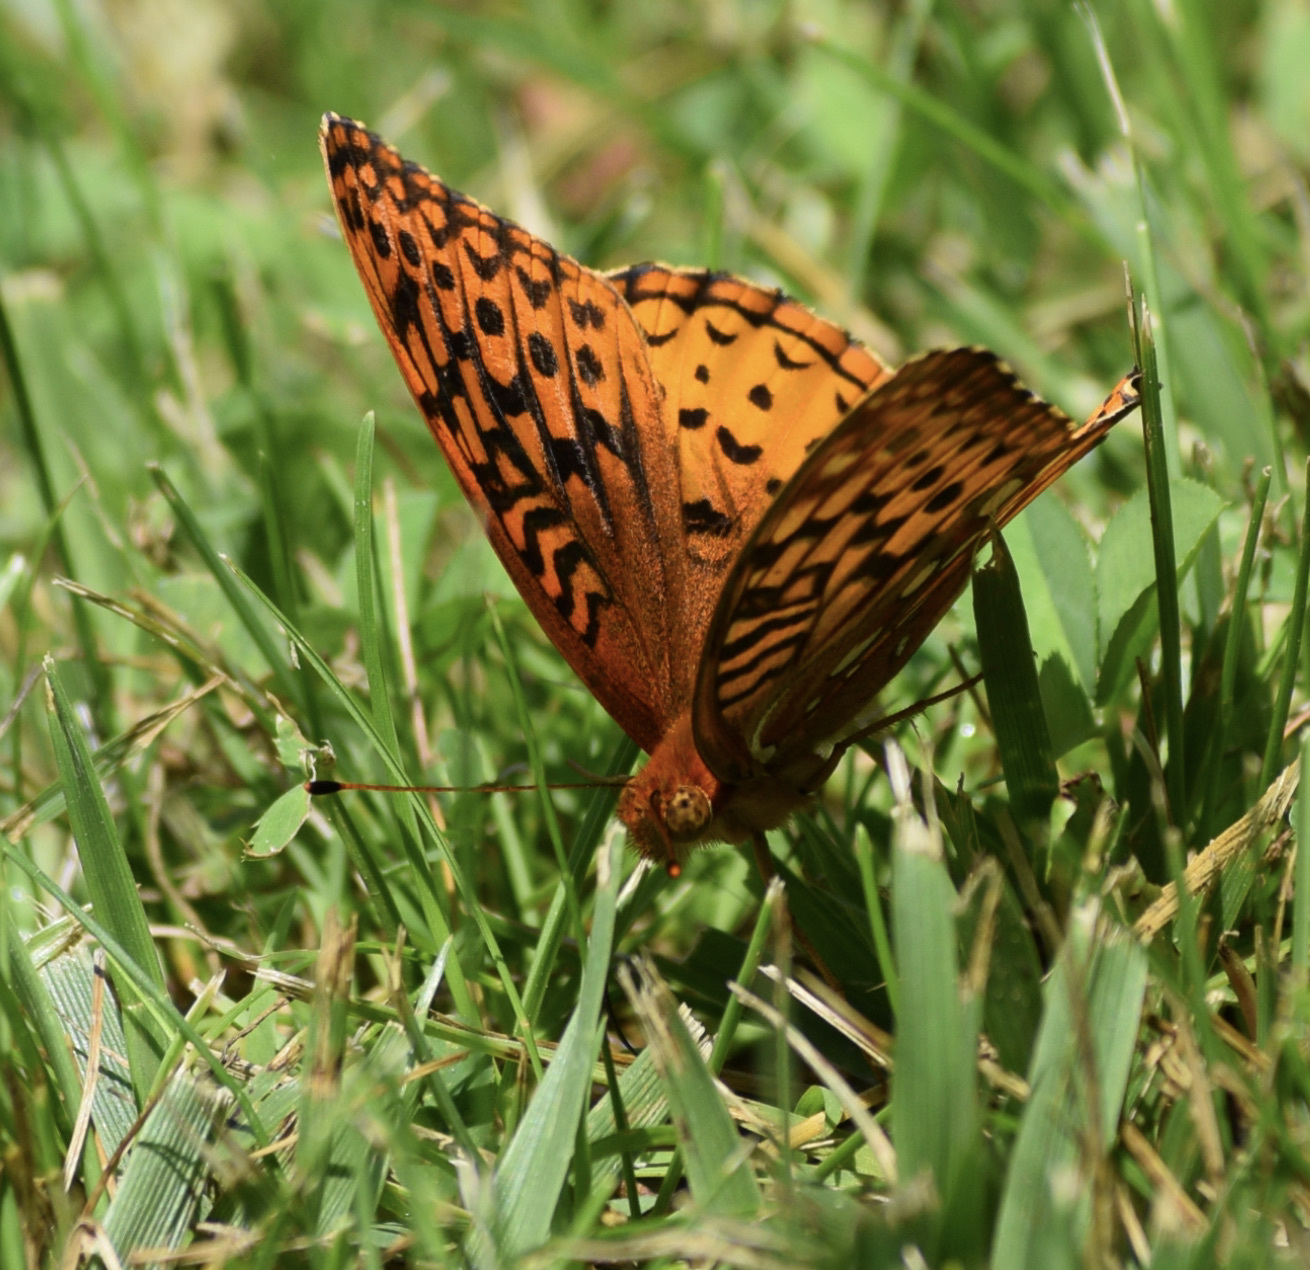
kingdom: Animalia
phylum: Arthropoda
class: Insecta
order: Lepidoptera
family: Nymphalidae
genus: Speyeria
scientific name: Speyeria cybele
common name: Great spangled fritillary
